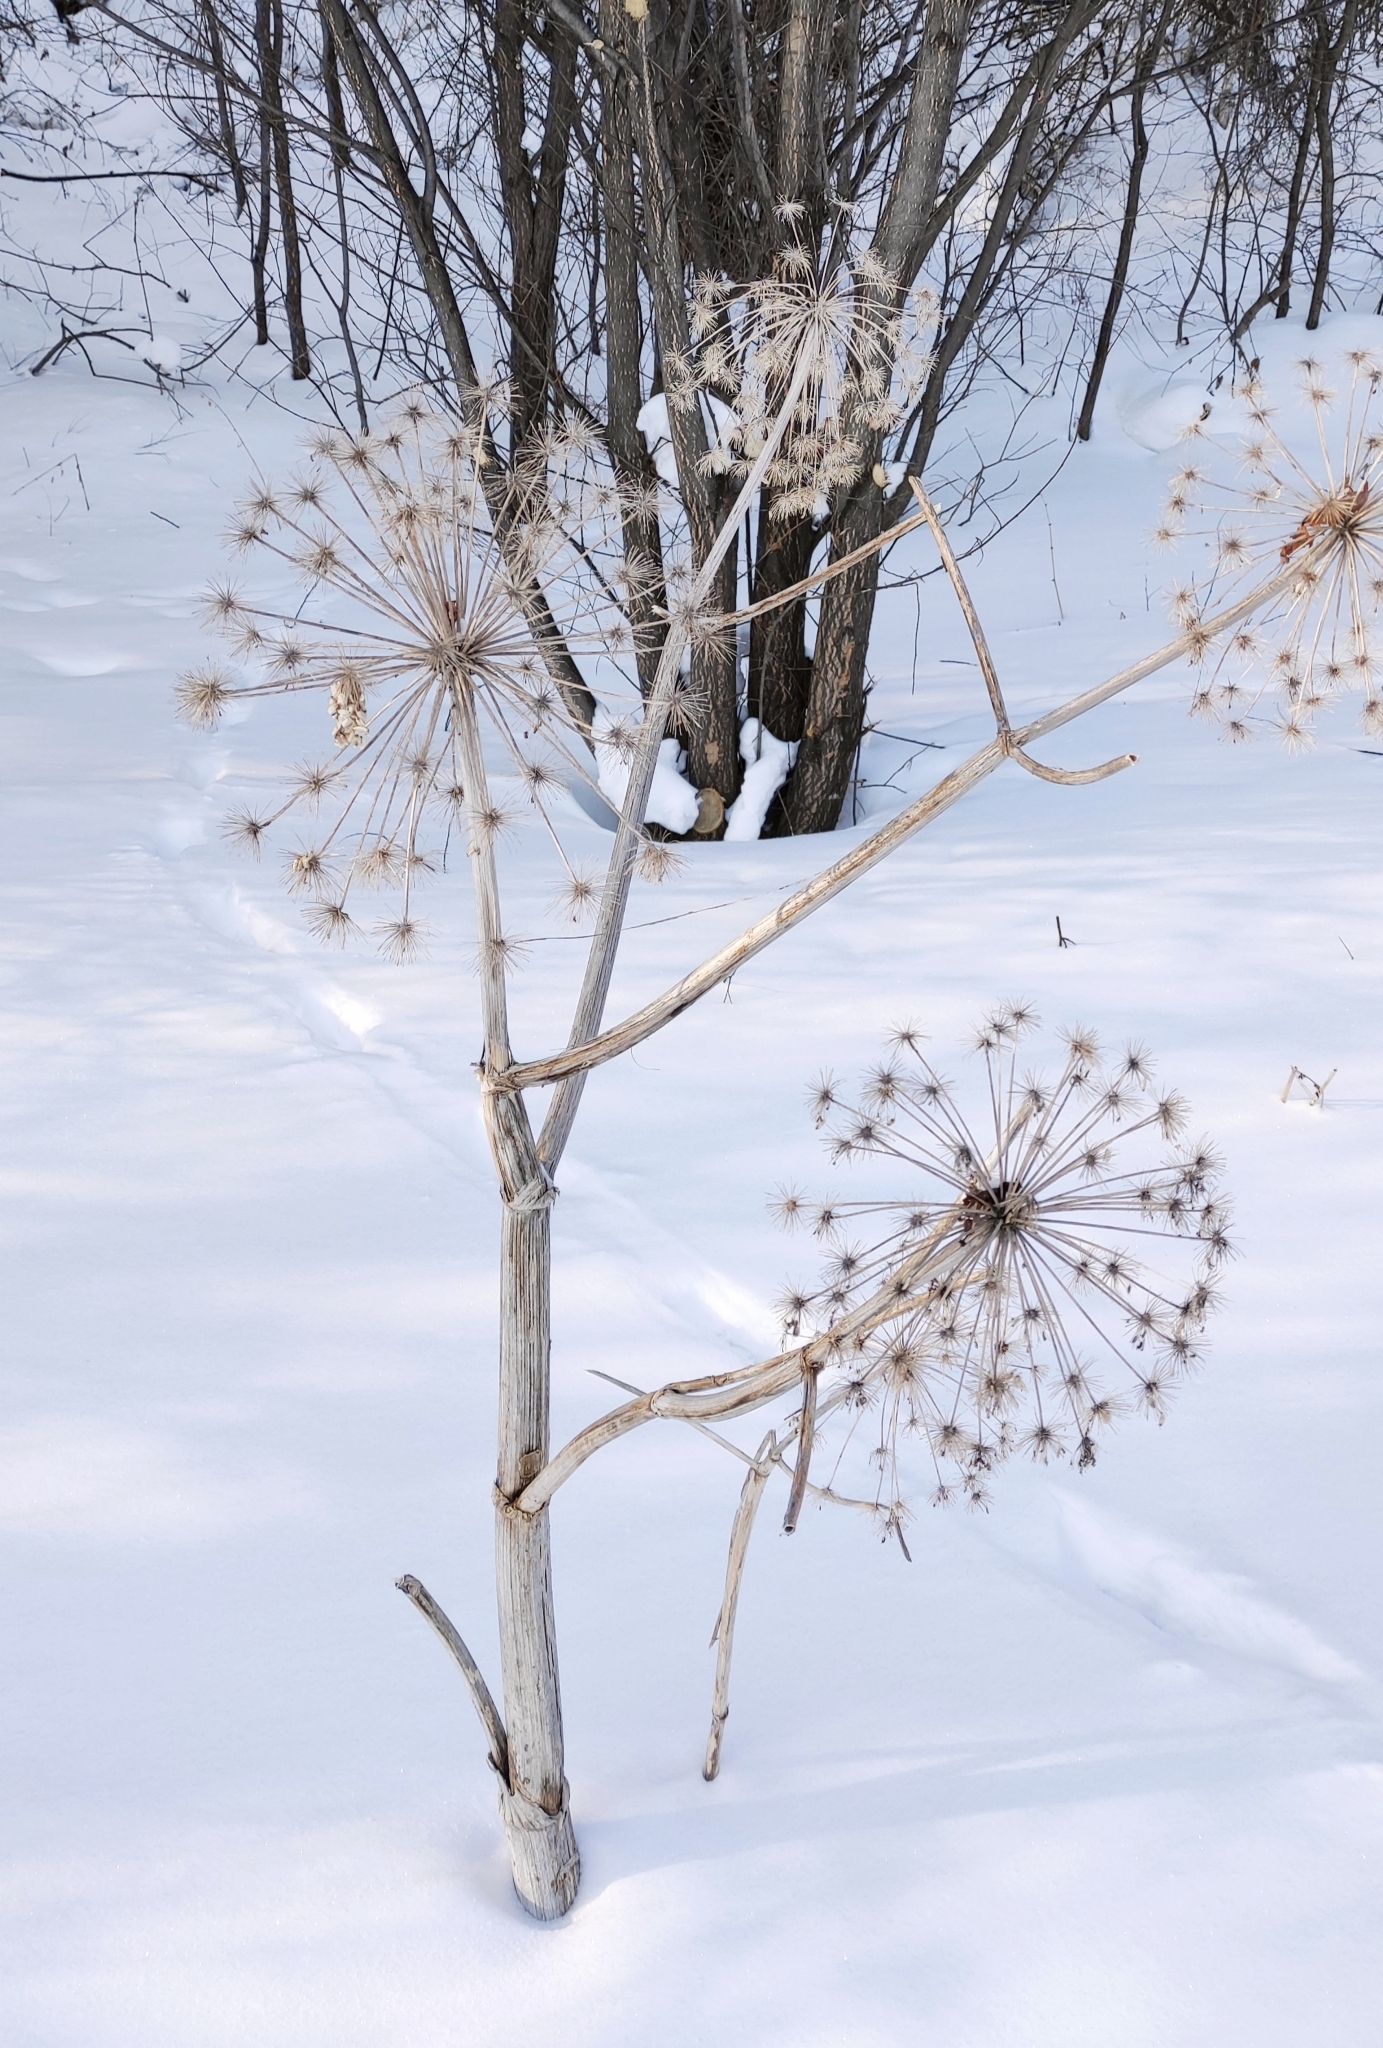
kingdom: Plantae
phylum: Tracheophyta
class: Magnoliopsida
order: Apiales
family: Apiaceae
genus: Angelica
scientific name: Angelica decurrens
